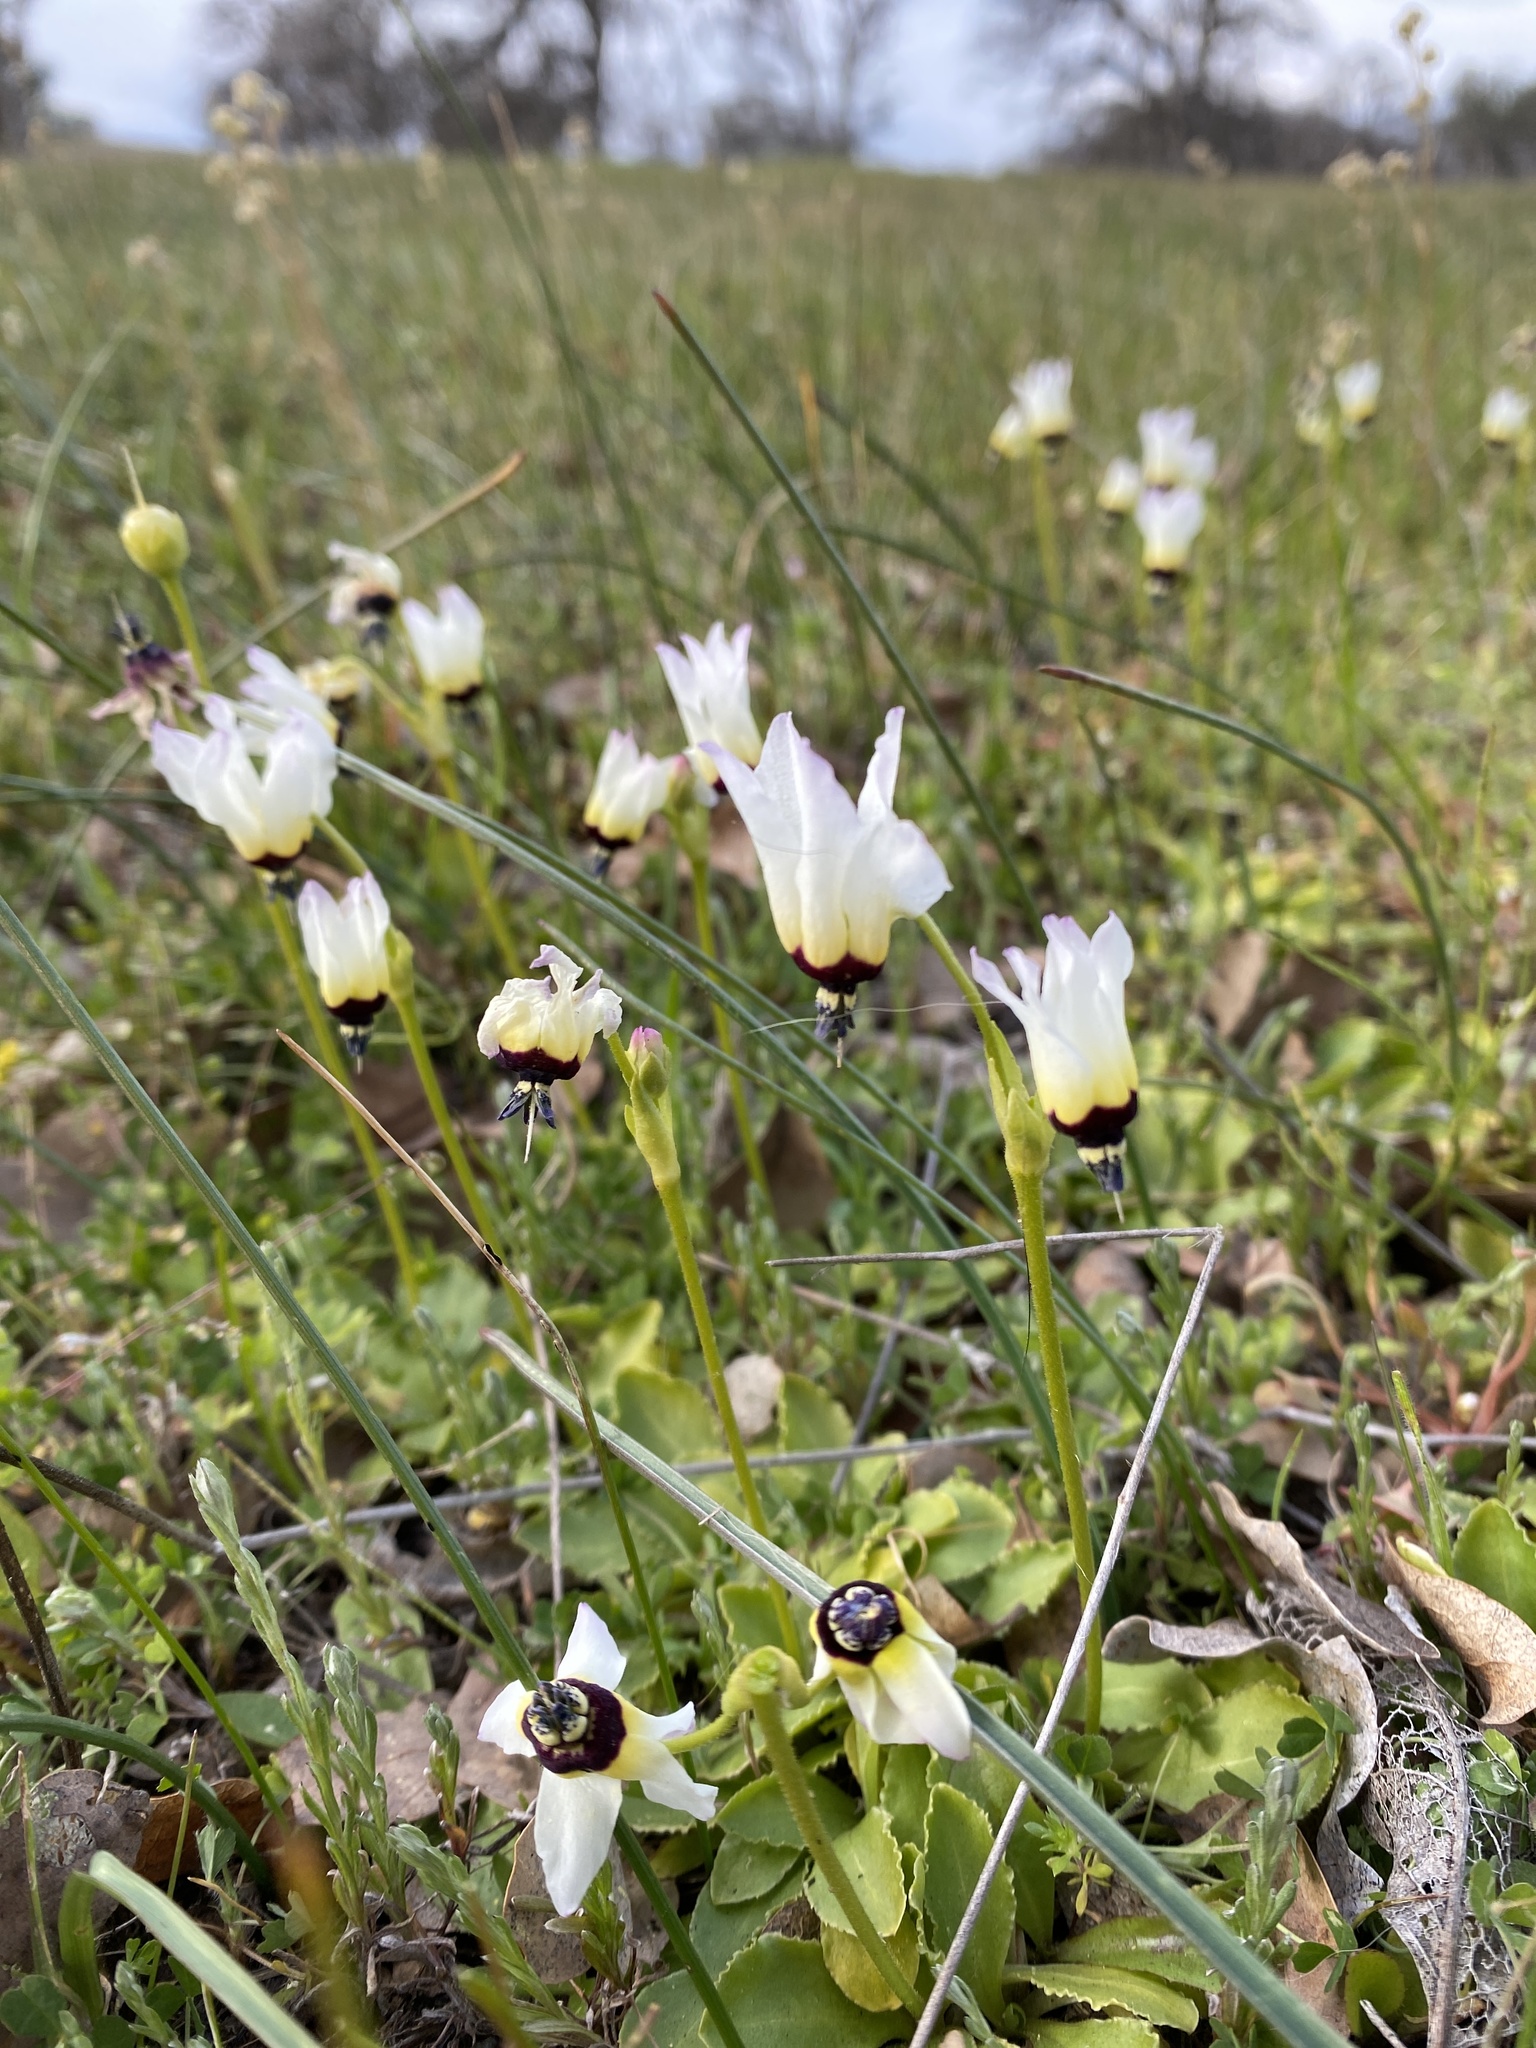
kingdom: Plantae
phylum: Tracheophyta
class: Magnoliopsida
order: Ericales
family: Primulaceae
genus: Dodecatheon
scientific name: Dodecatheon clevelandii
